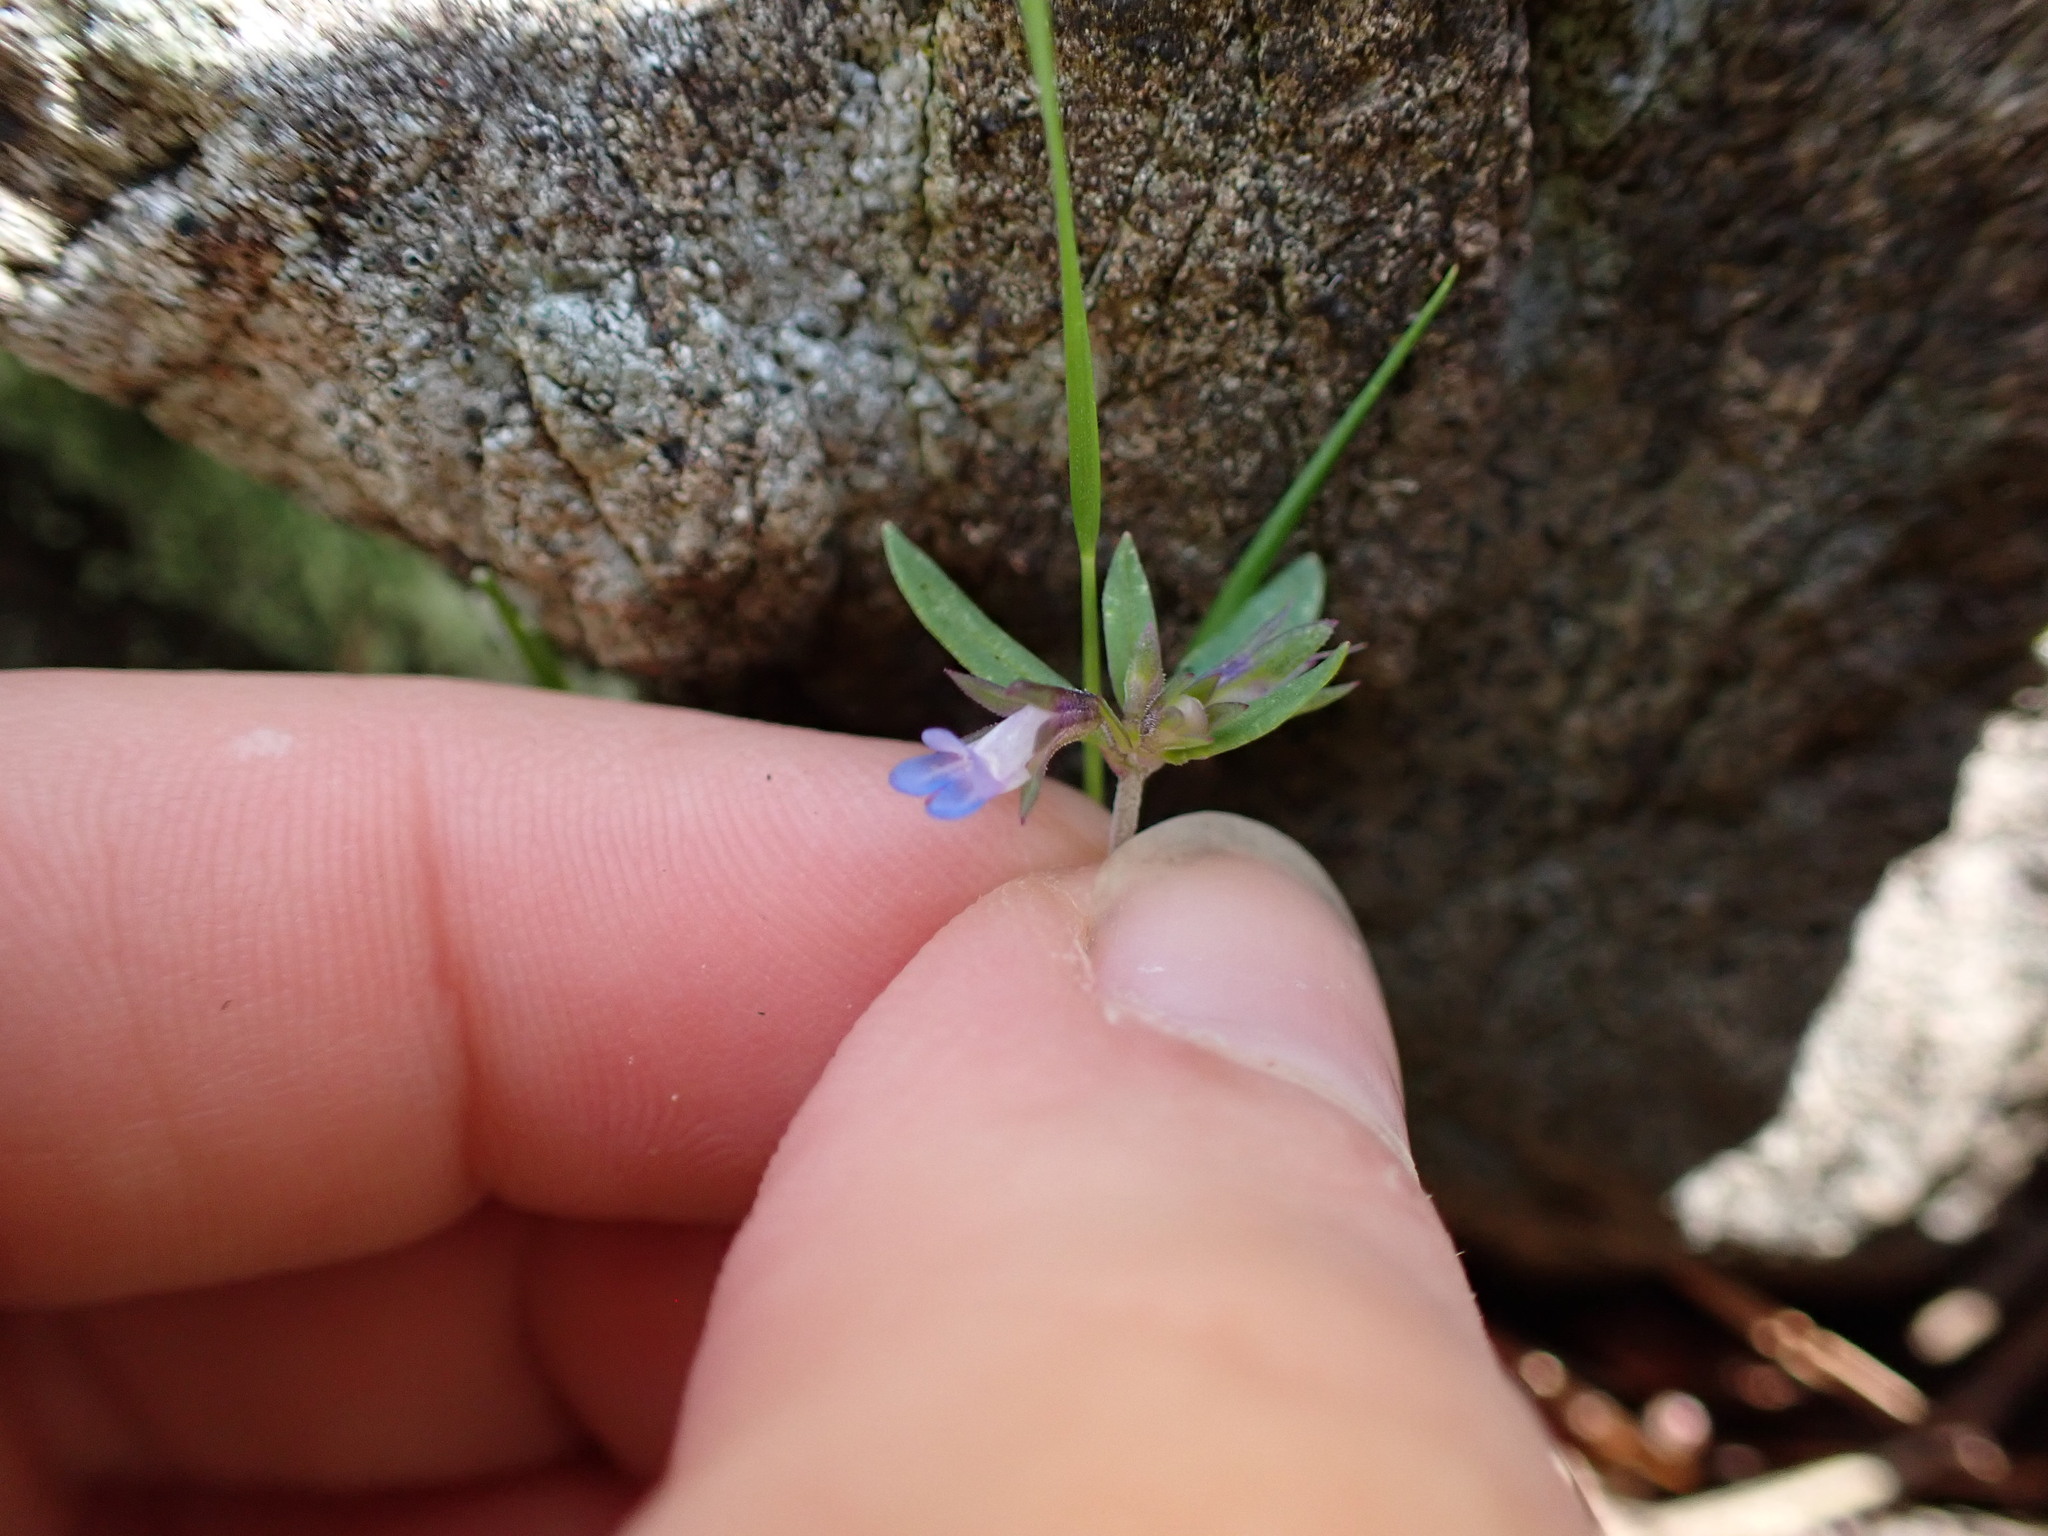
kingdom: Plantae
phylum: Tracheophyta
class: Magnoliopsida
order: Lamiales
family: Plantaginaceae
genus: Collinsia
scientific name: Collinsia parviflora
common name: Blue-lips
